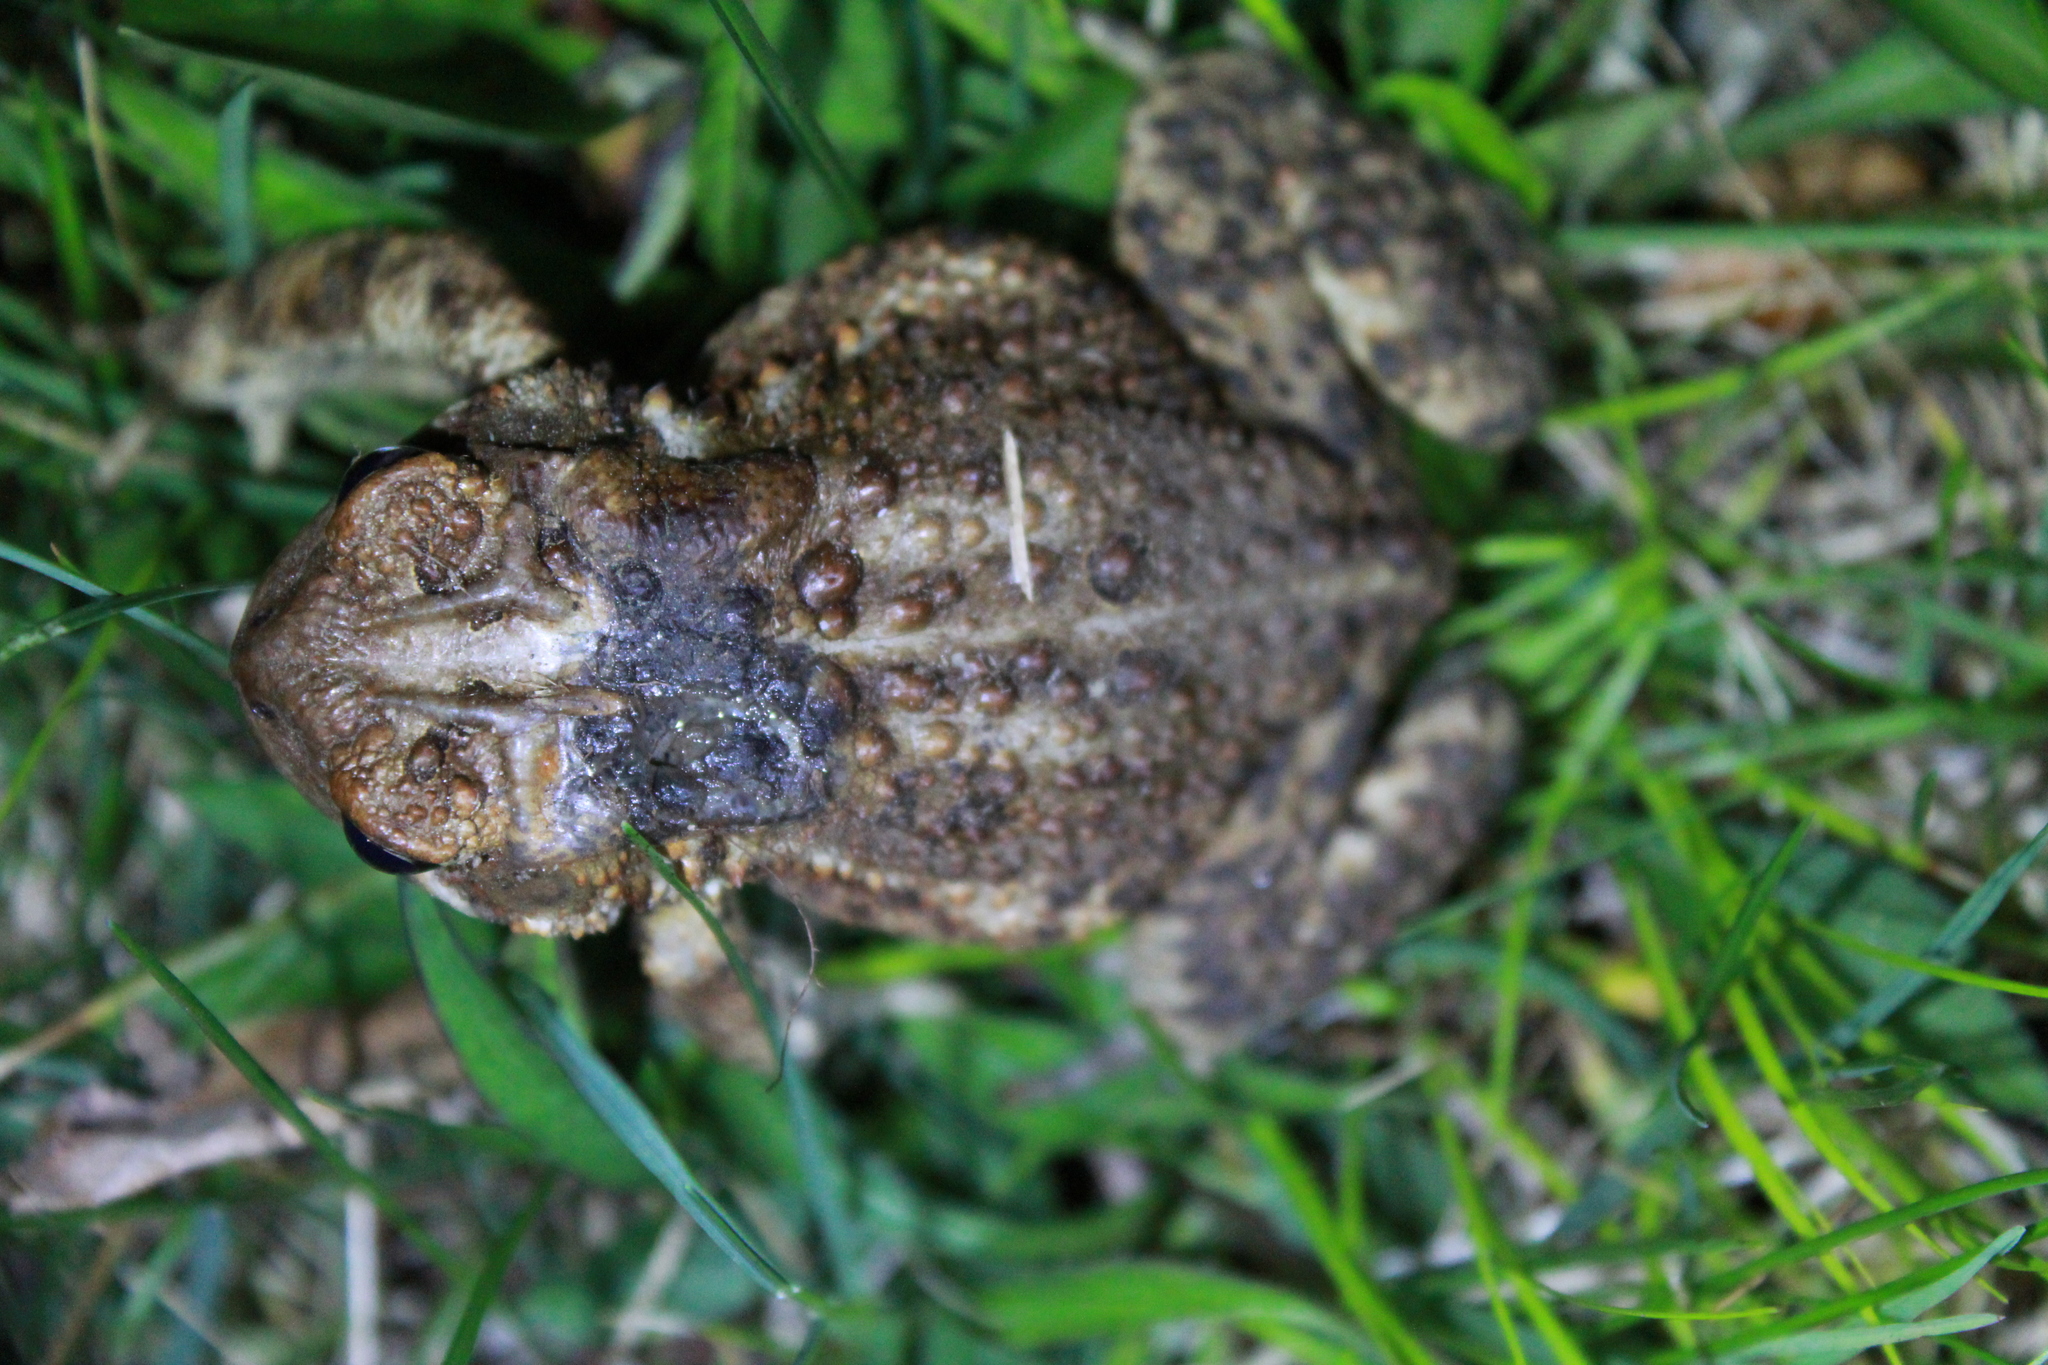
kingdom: Animalia
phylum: Chordata
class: Amphibia
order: Anura
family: Bufonidae
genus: Anaxyrus
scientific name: Anaxyrus americanus
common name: American toad
